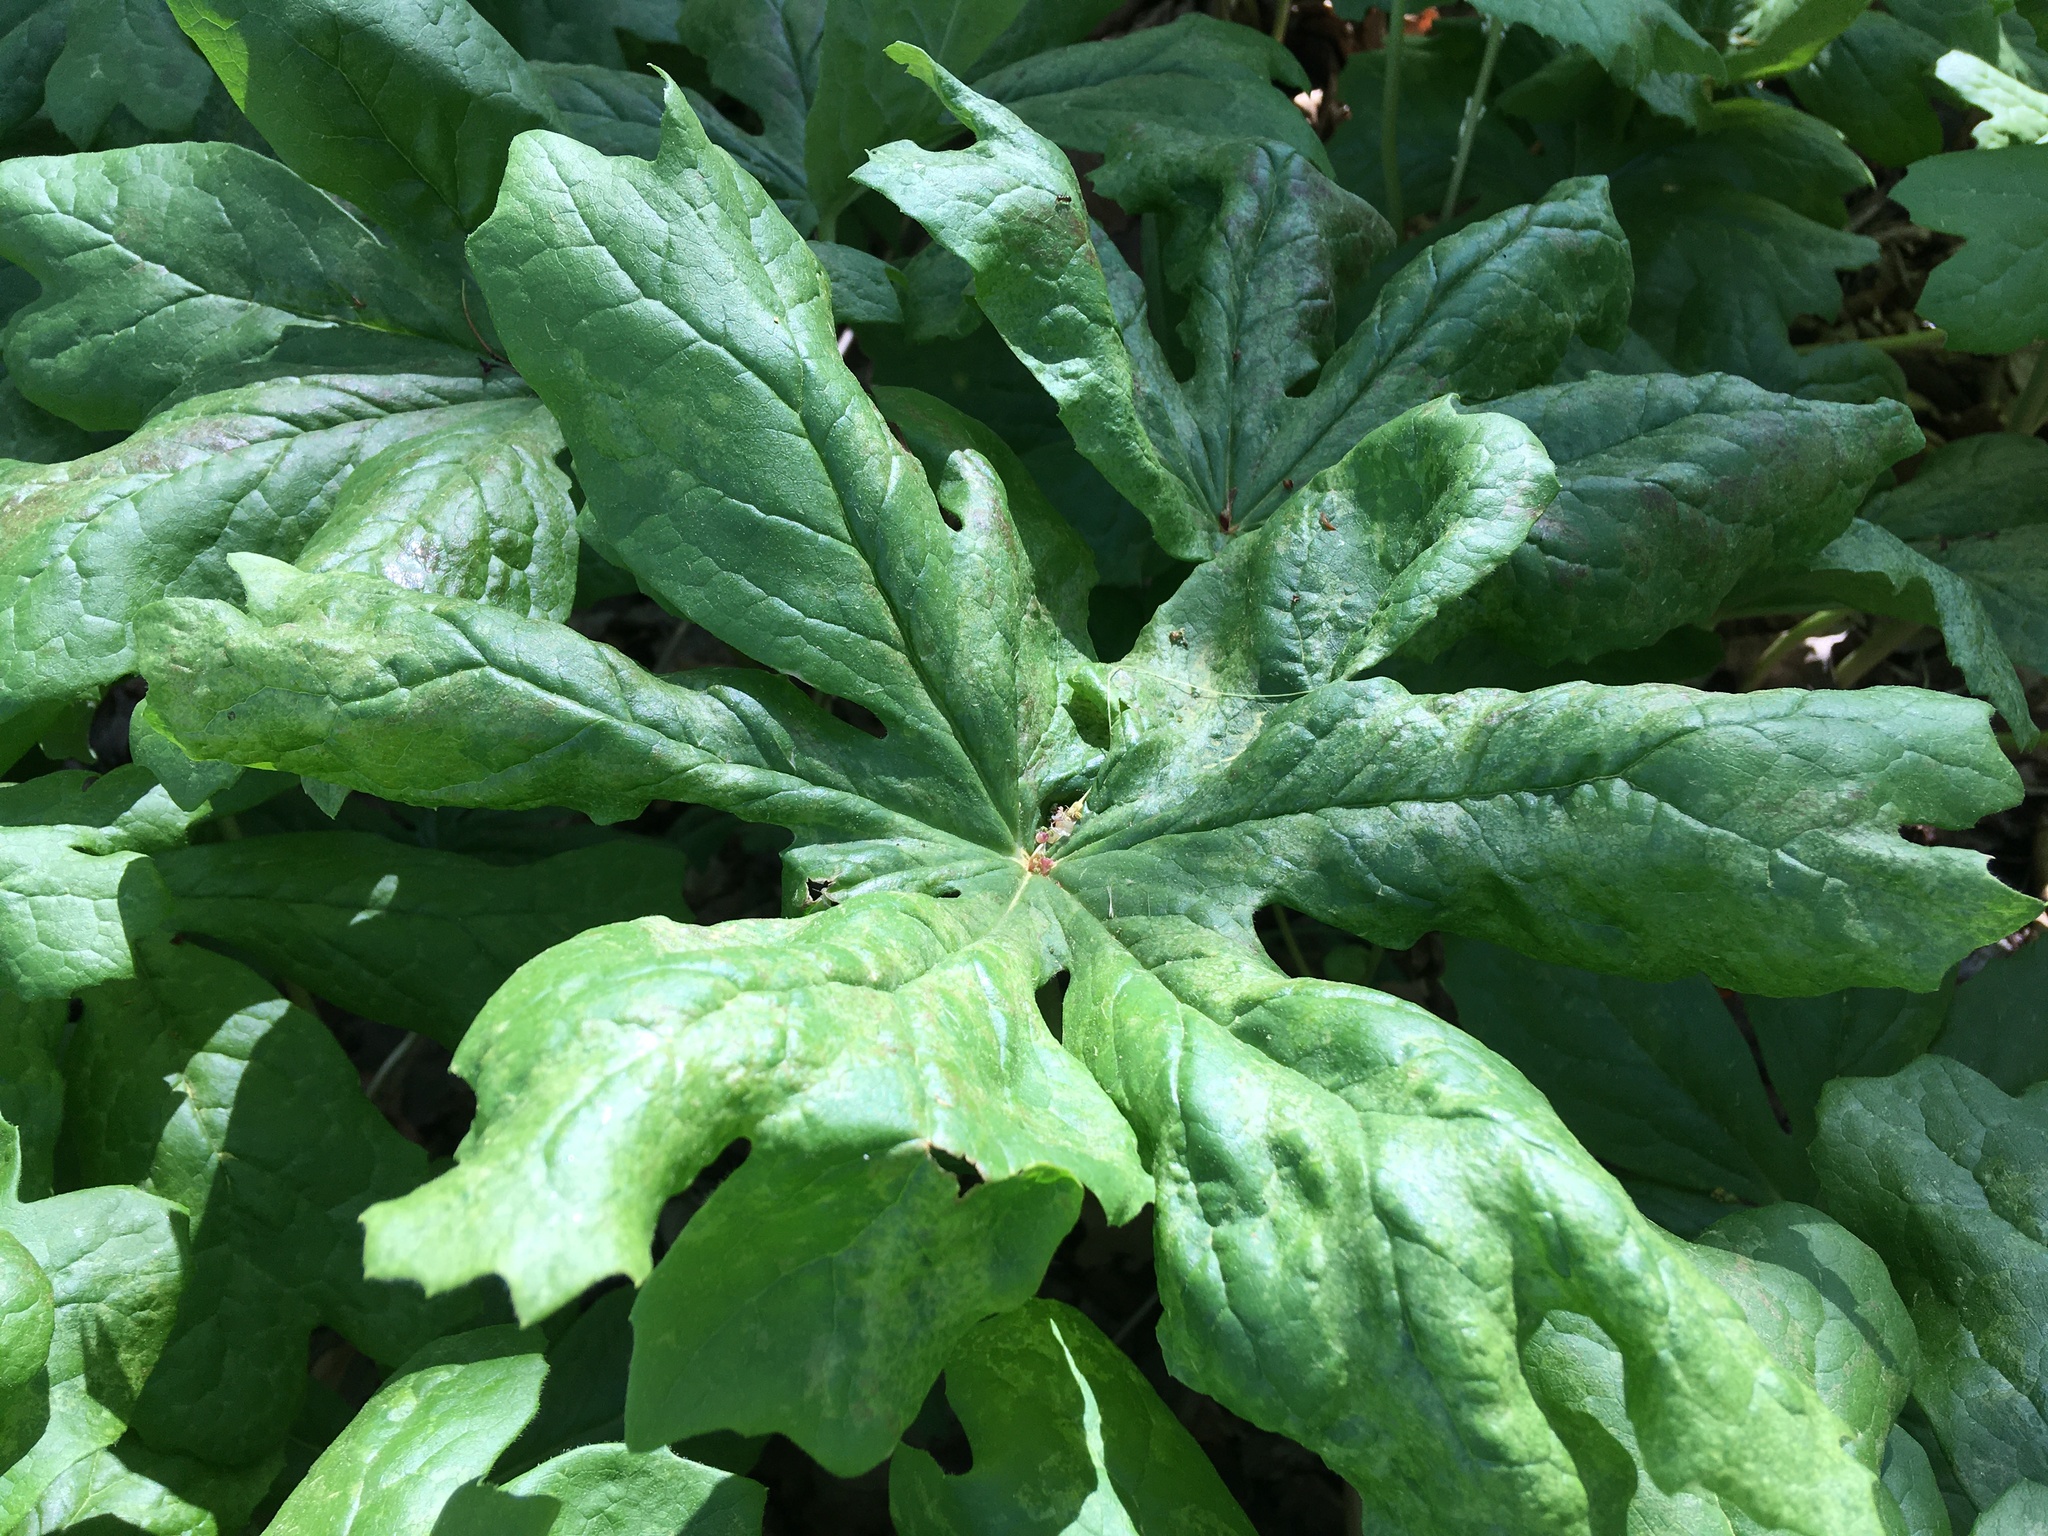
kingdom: Plantae
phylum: Tracheophyta
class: Magnoliopsida
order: Ranunculales
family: Berberidaceae
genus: Podophyllum
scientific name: Podophyllum peltatum
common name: Wild mandrake
